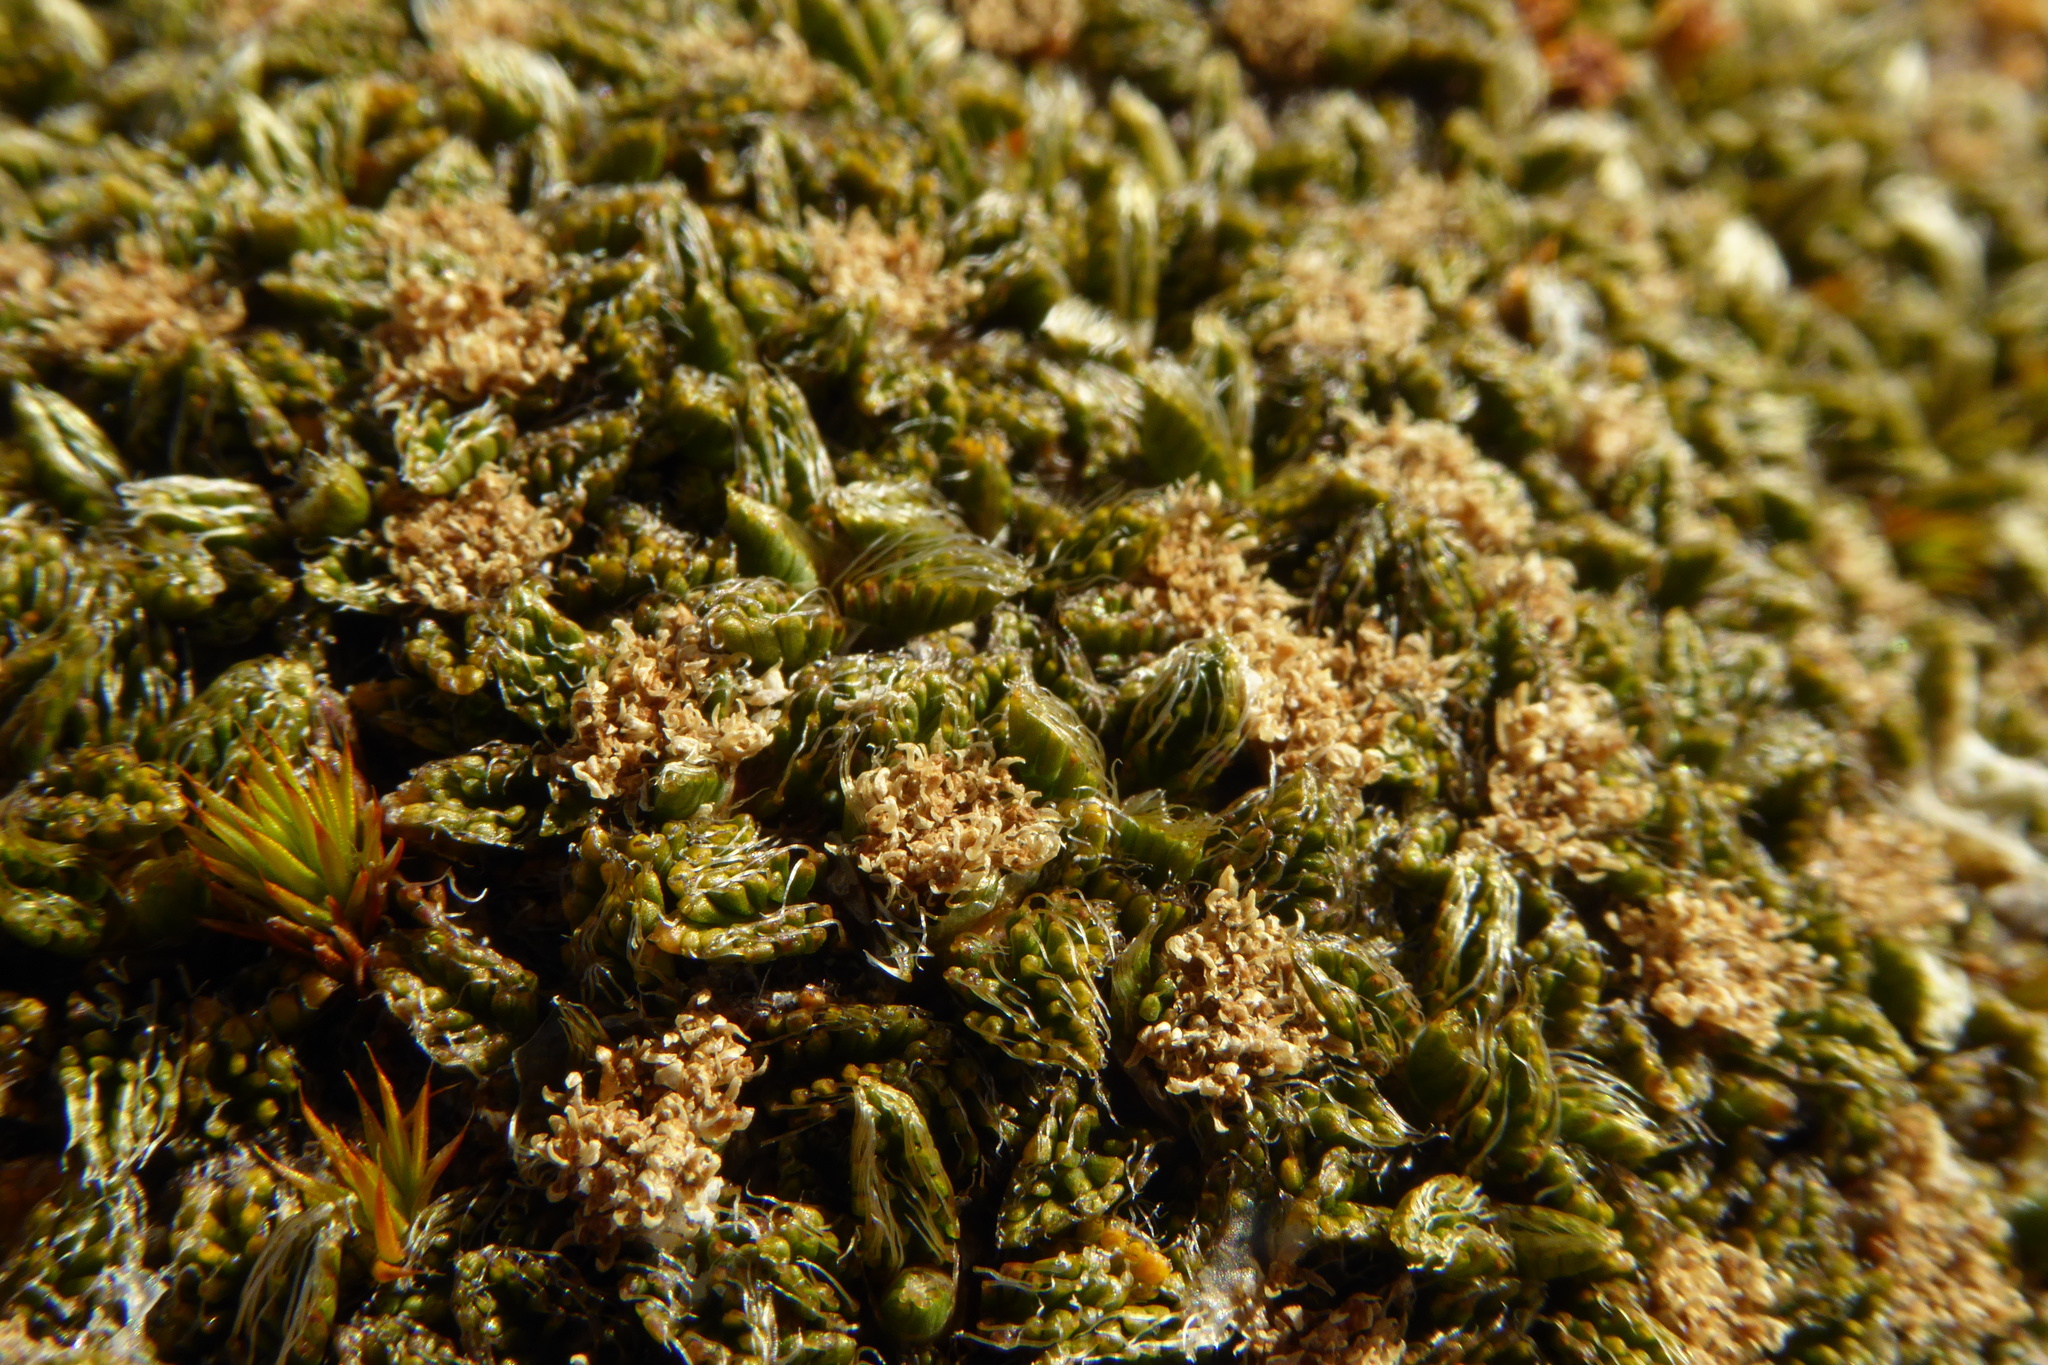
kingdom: Plantae
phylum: Tracheophyta
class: Magnoliopsida
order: Apiales
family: Apiaceae
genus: Anisotome
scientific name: Anisotome imbricata
